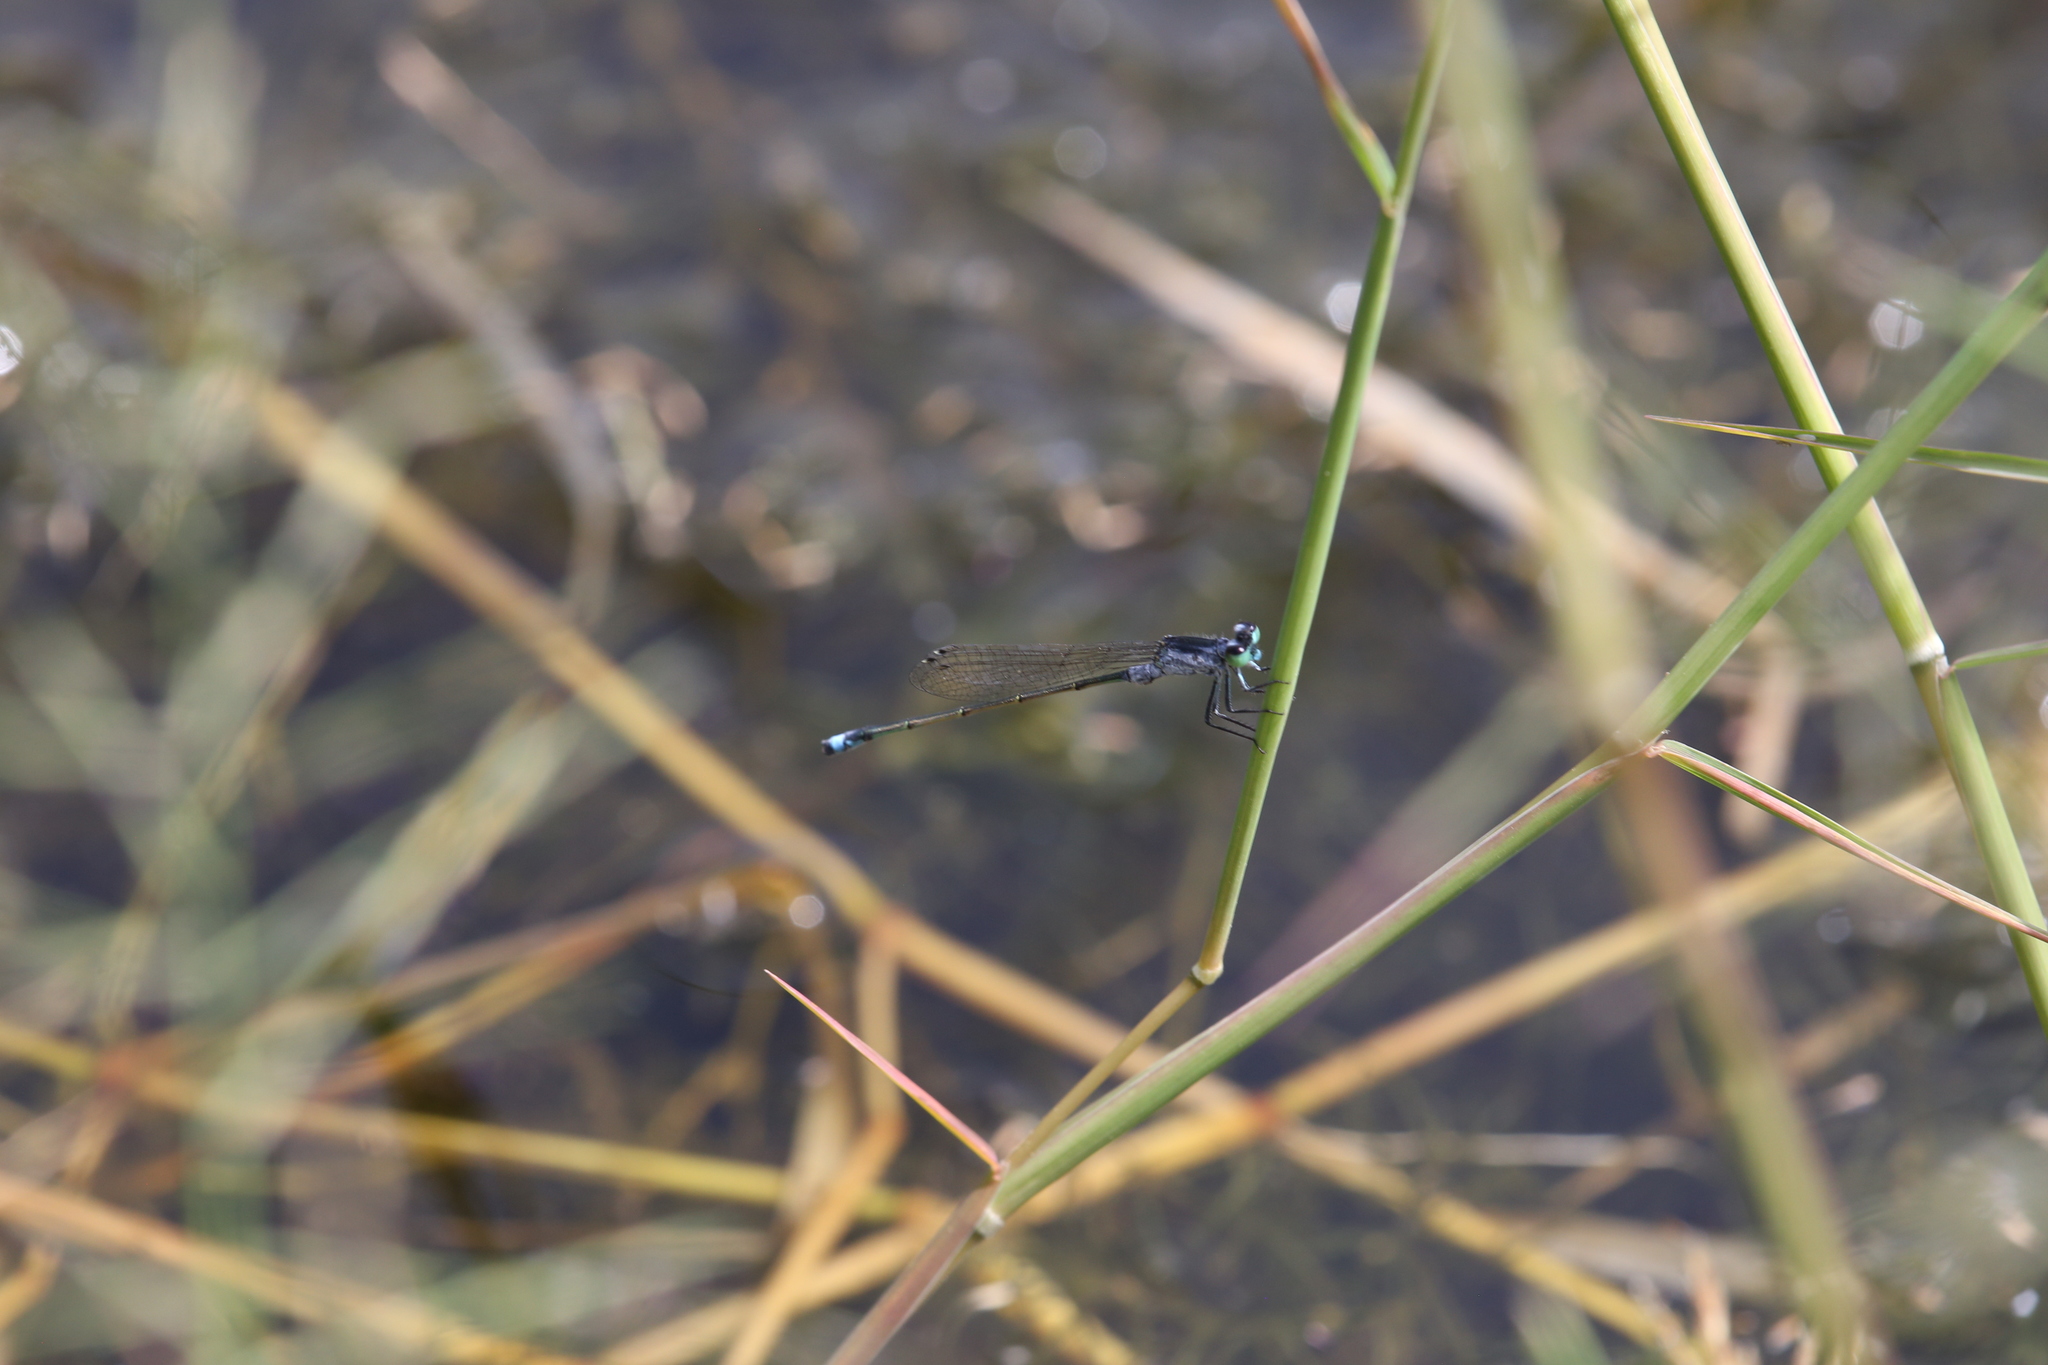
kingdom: Animalia
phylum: Arthropoda
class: Insecta
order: Odonata
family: Coenagrionidae
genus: Ischnura
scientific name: Ischnura pruinescens
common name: Colourful bluetail
